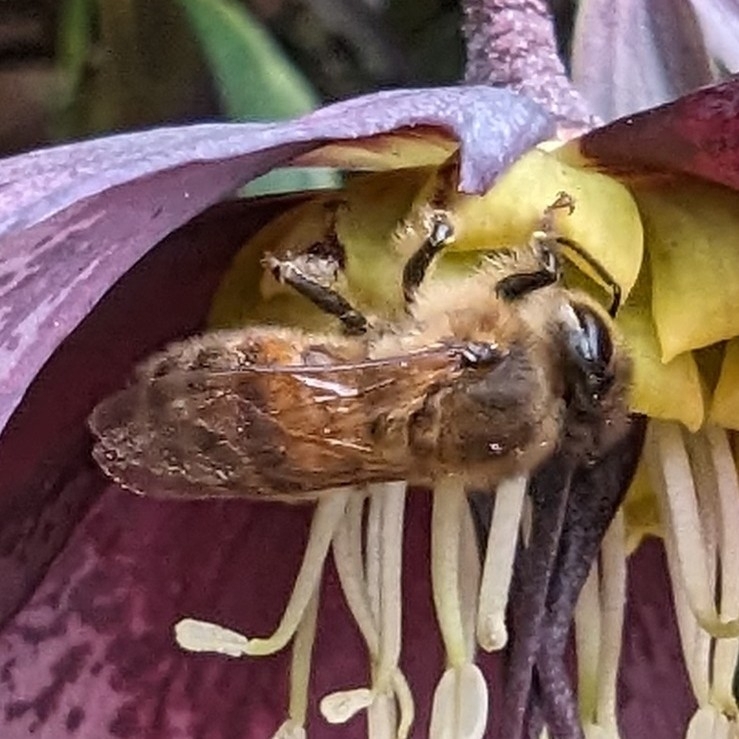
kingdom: Animalia
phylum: Arthropoda
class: Insecta
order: Hymenoptera
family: Apidae
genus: Apis
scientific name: Apis mellifera
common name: Honey bee
